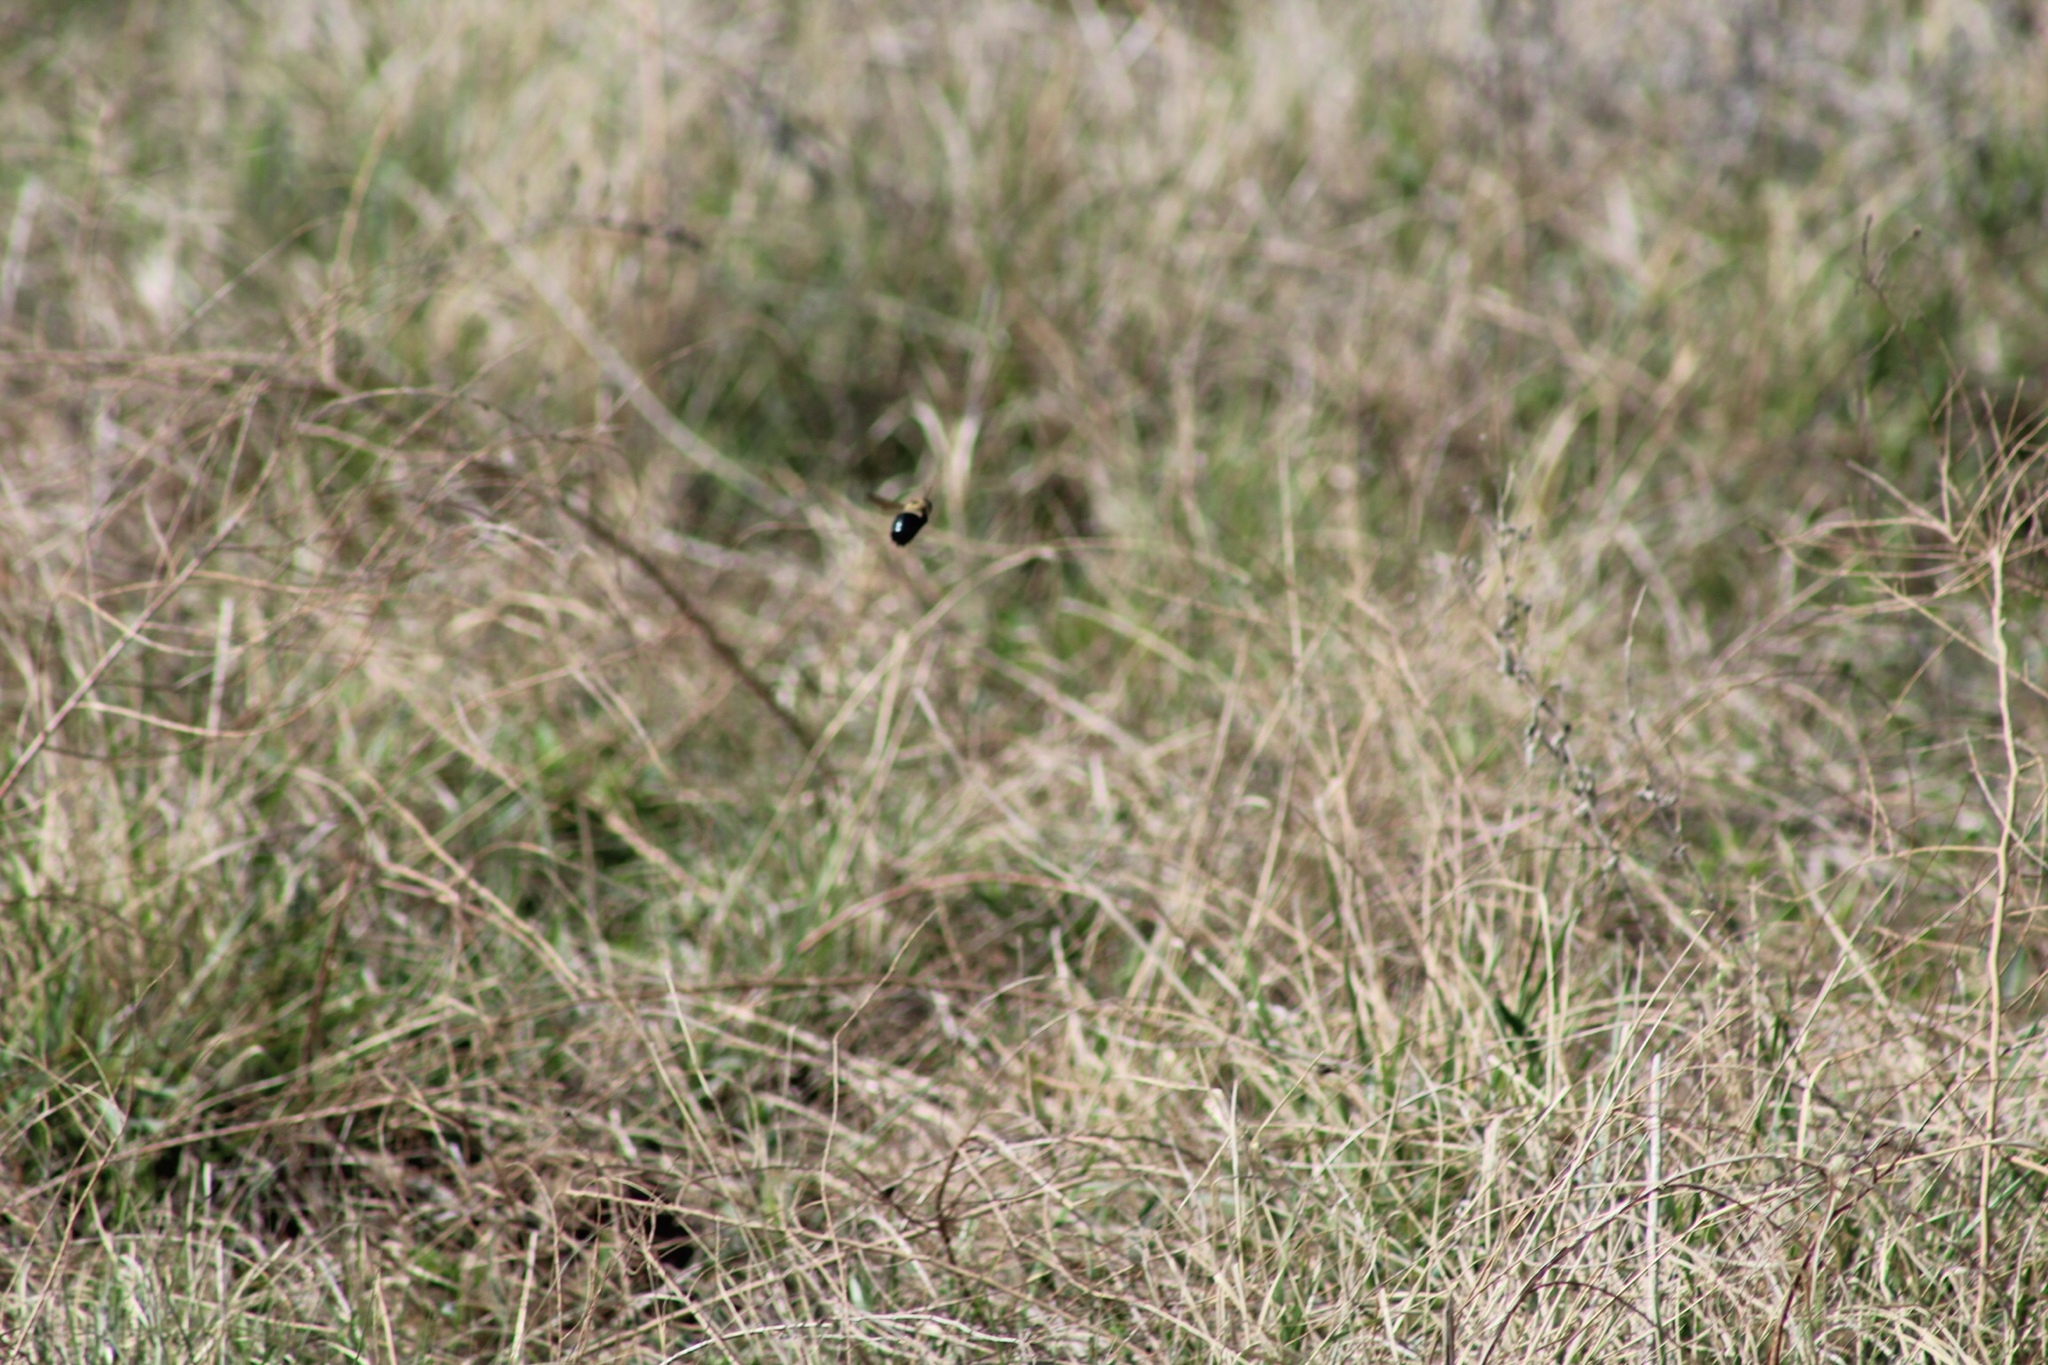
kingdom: Animalia
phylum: Arthropoda
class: Insecta
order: Hymenoptera
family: Apidae
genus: Xylocopa
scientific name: Xylocopa virginica
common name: Carpenter bee
